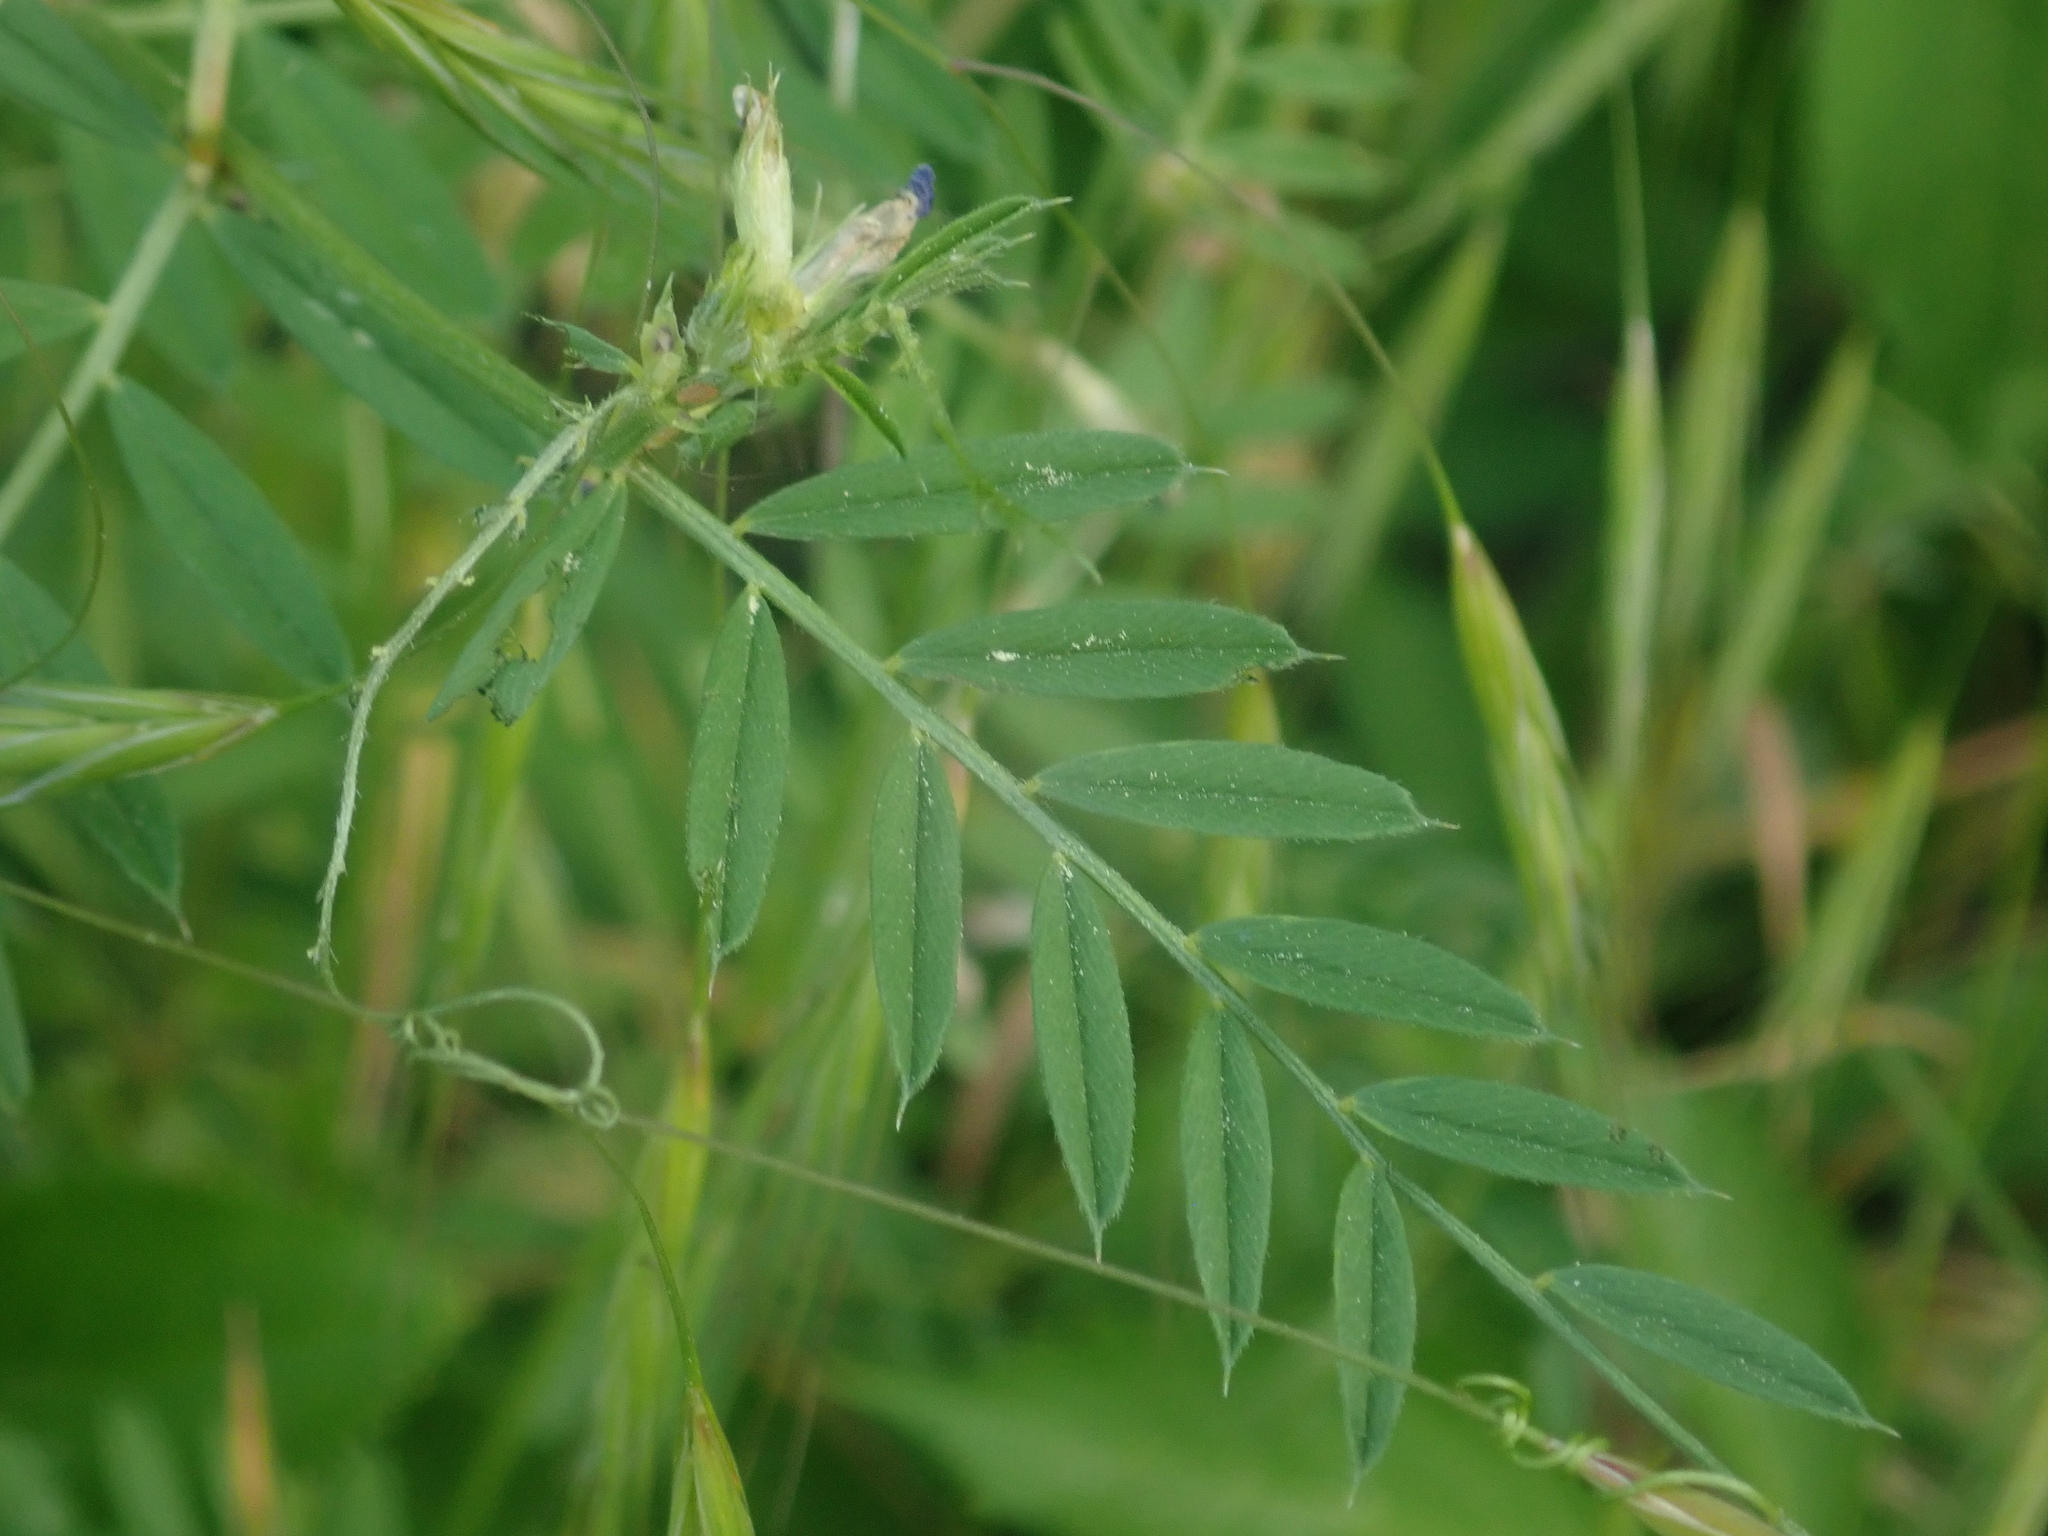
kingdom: Plantae
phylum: Tracheophyta
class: Magnoliopsida
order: Fabales
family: Fabaceae
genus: Vicia
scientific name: Vicia sativa
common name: Garden vetch
